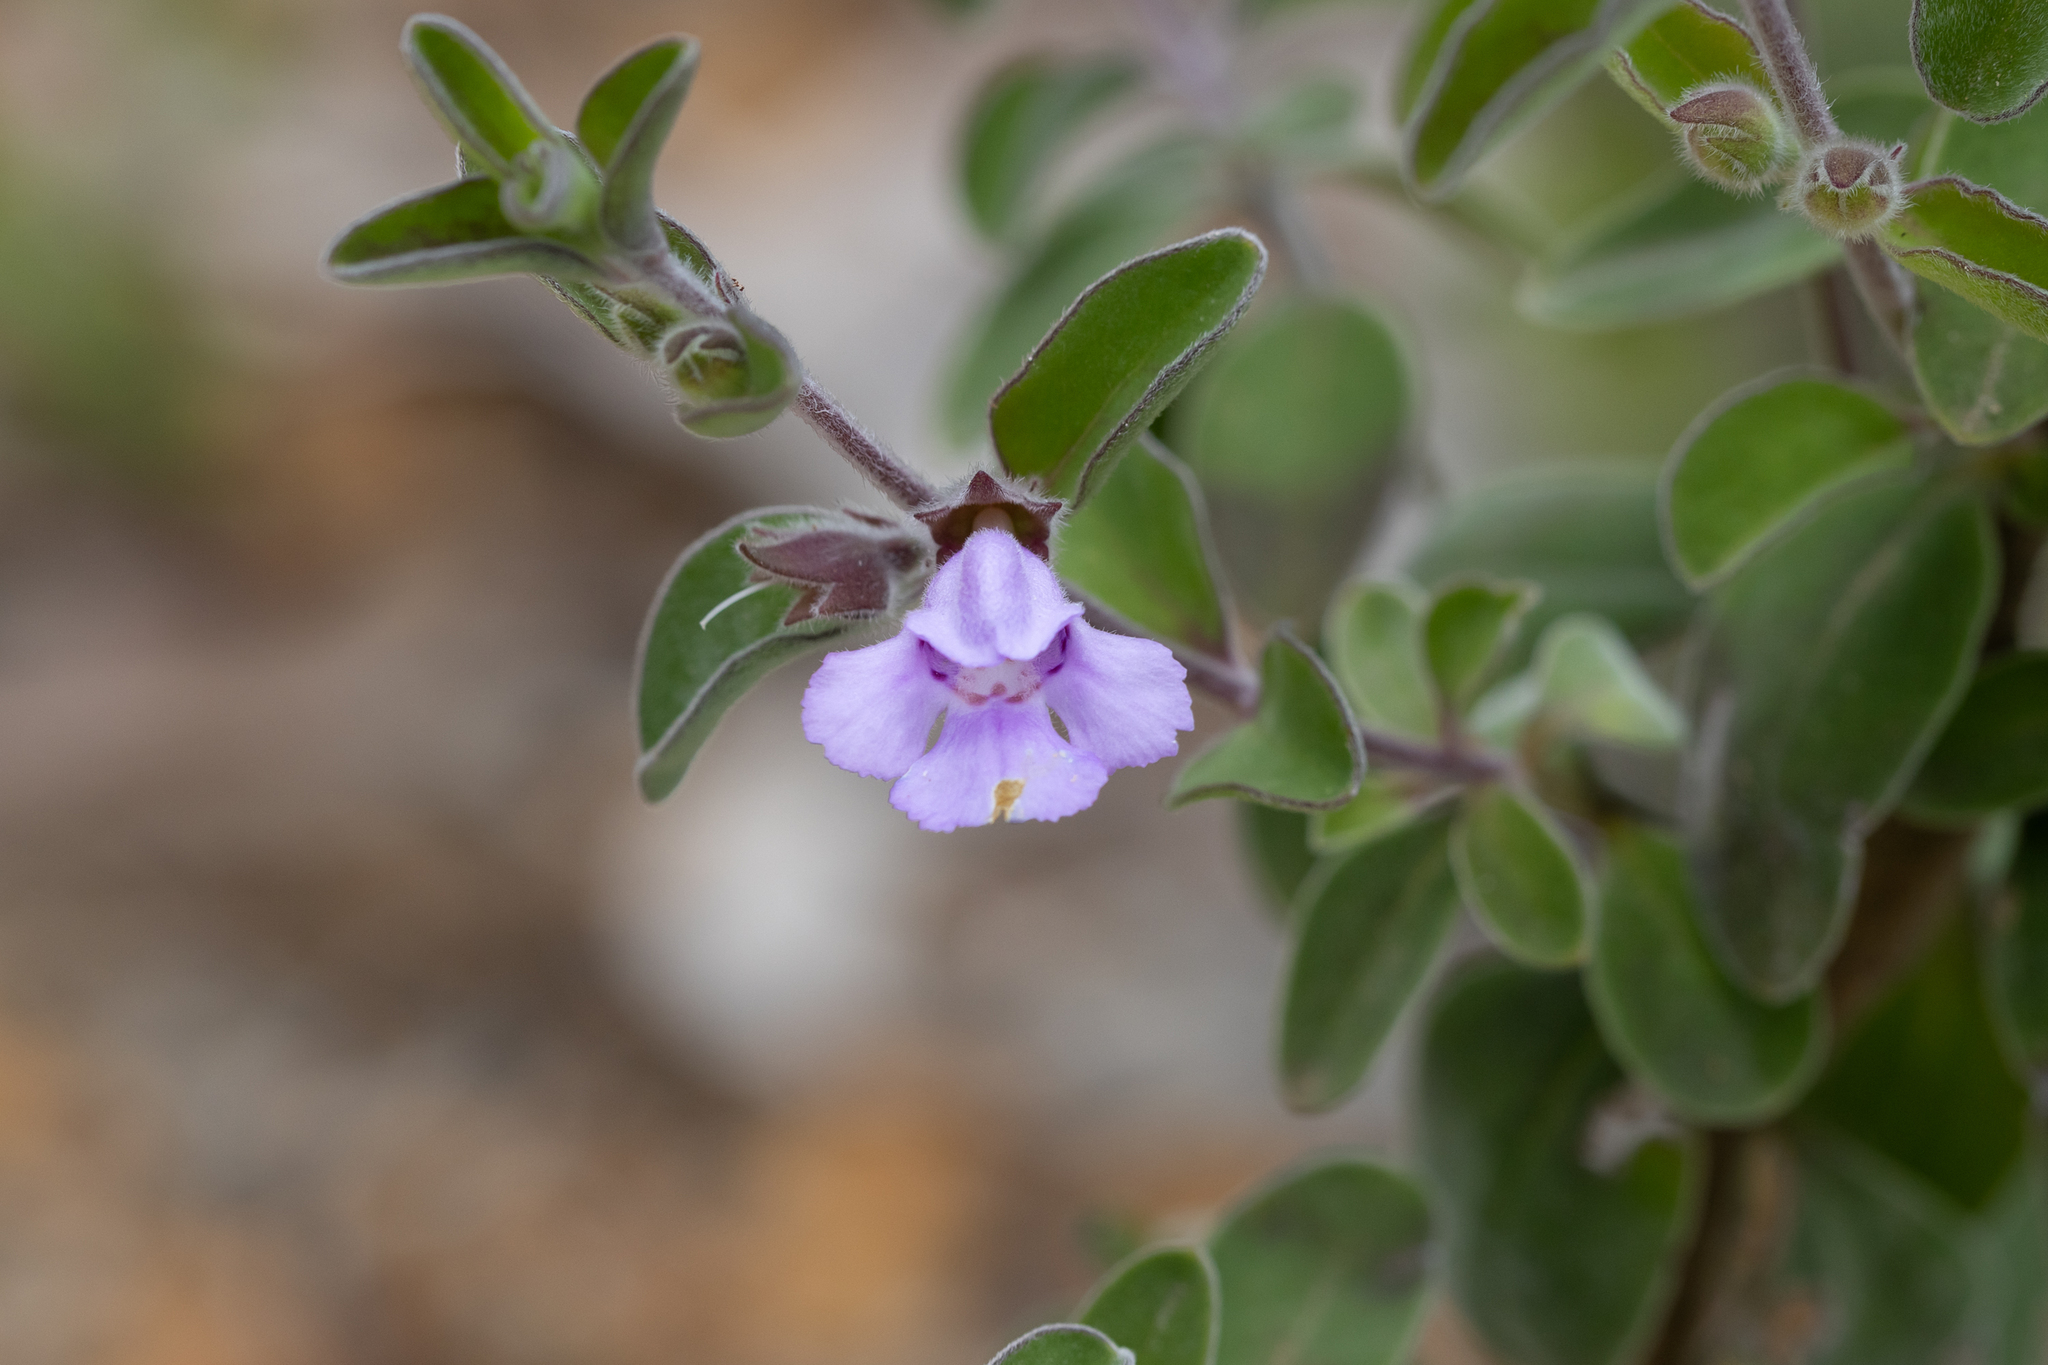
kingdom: Plantae
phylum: Tracheophyta
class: Magnoliopsida
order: Lamiales
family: Lamiaceae
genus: Hemigenia
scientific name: Hemigenia incana
